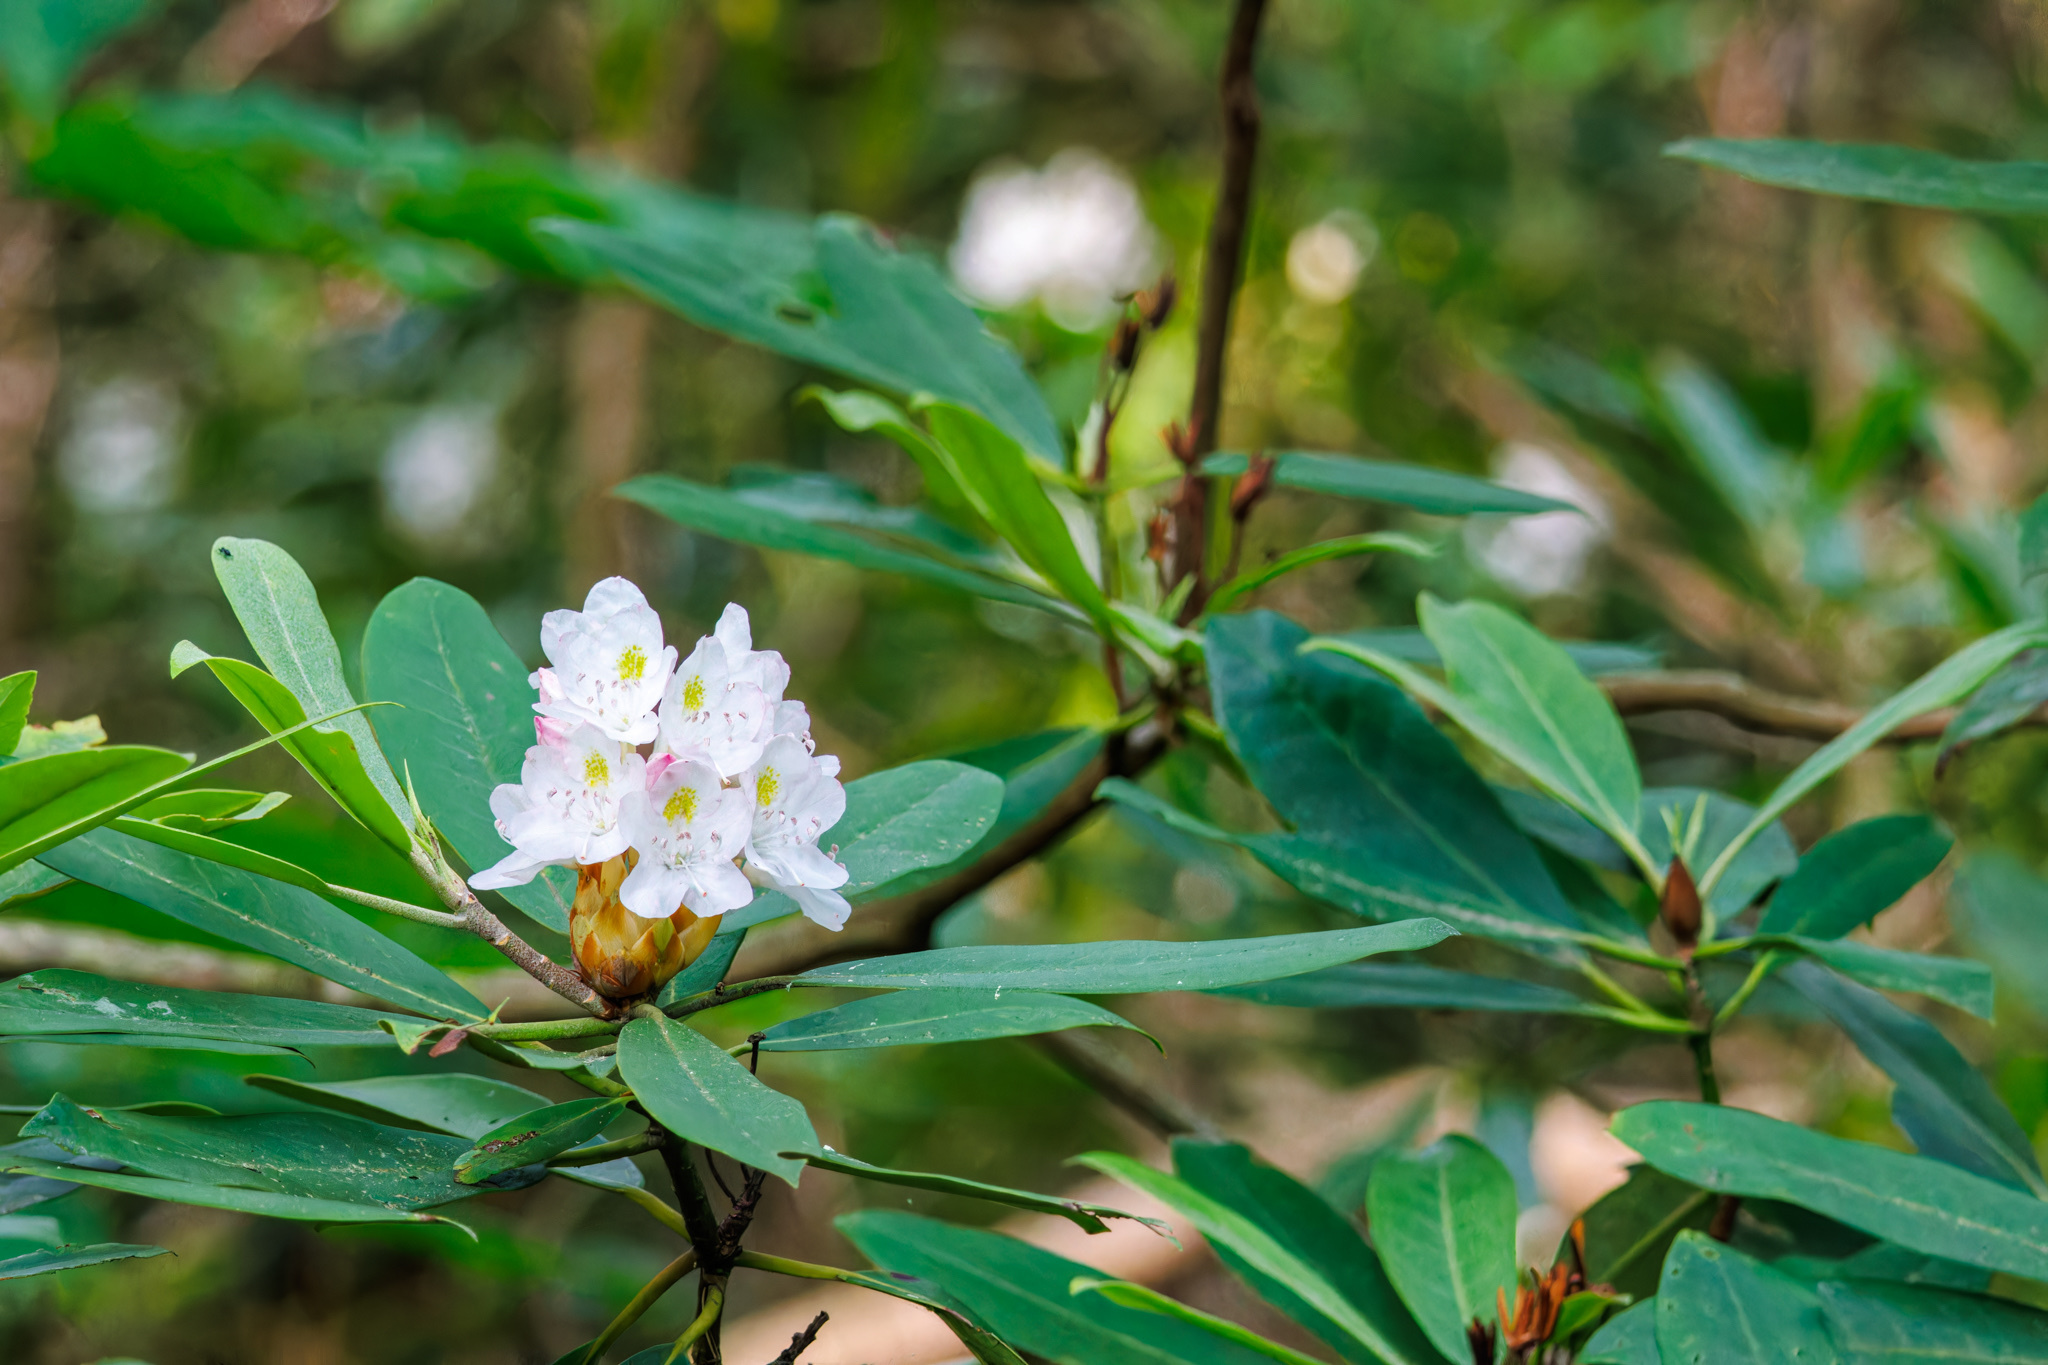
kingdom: Plantae
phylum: Tracheophyta
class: Magnoliopsida
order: Ericales
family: Ericaceae
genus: Rhododendron
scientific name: Rhododendron maximum
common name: Great rhododendron
